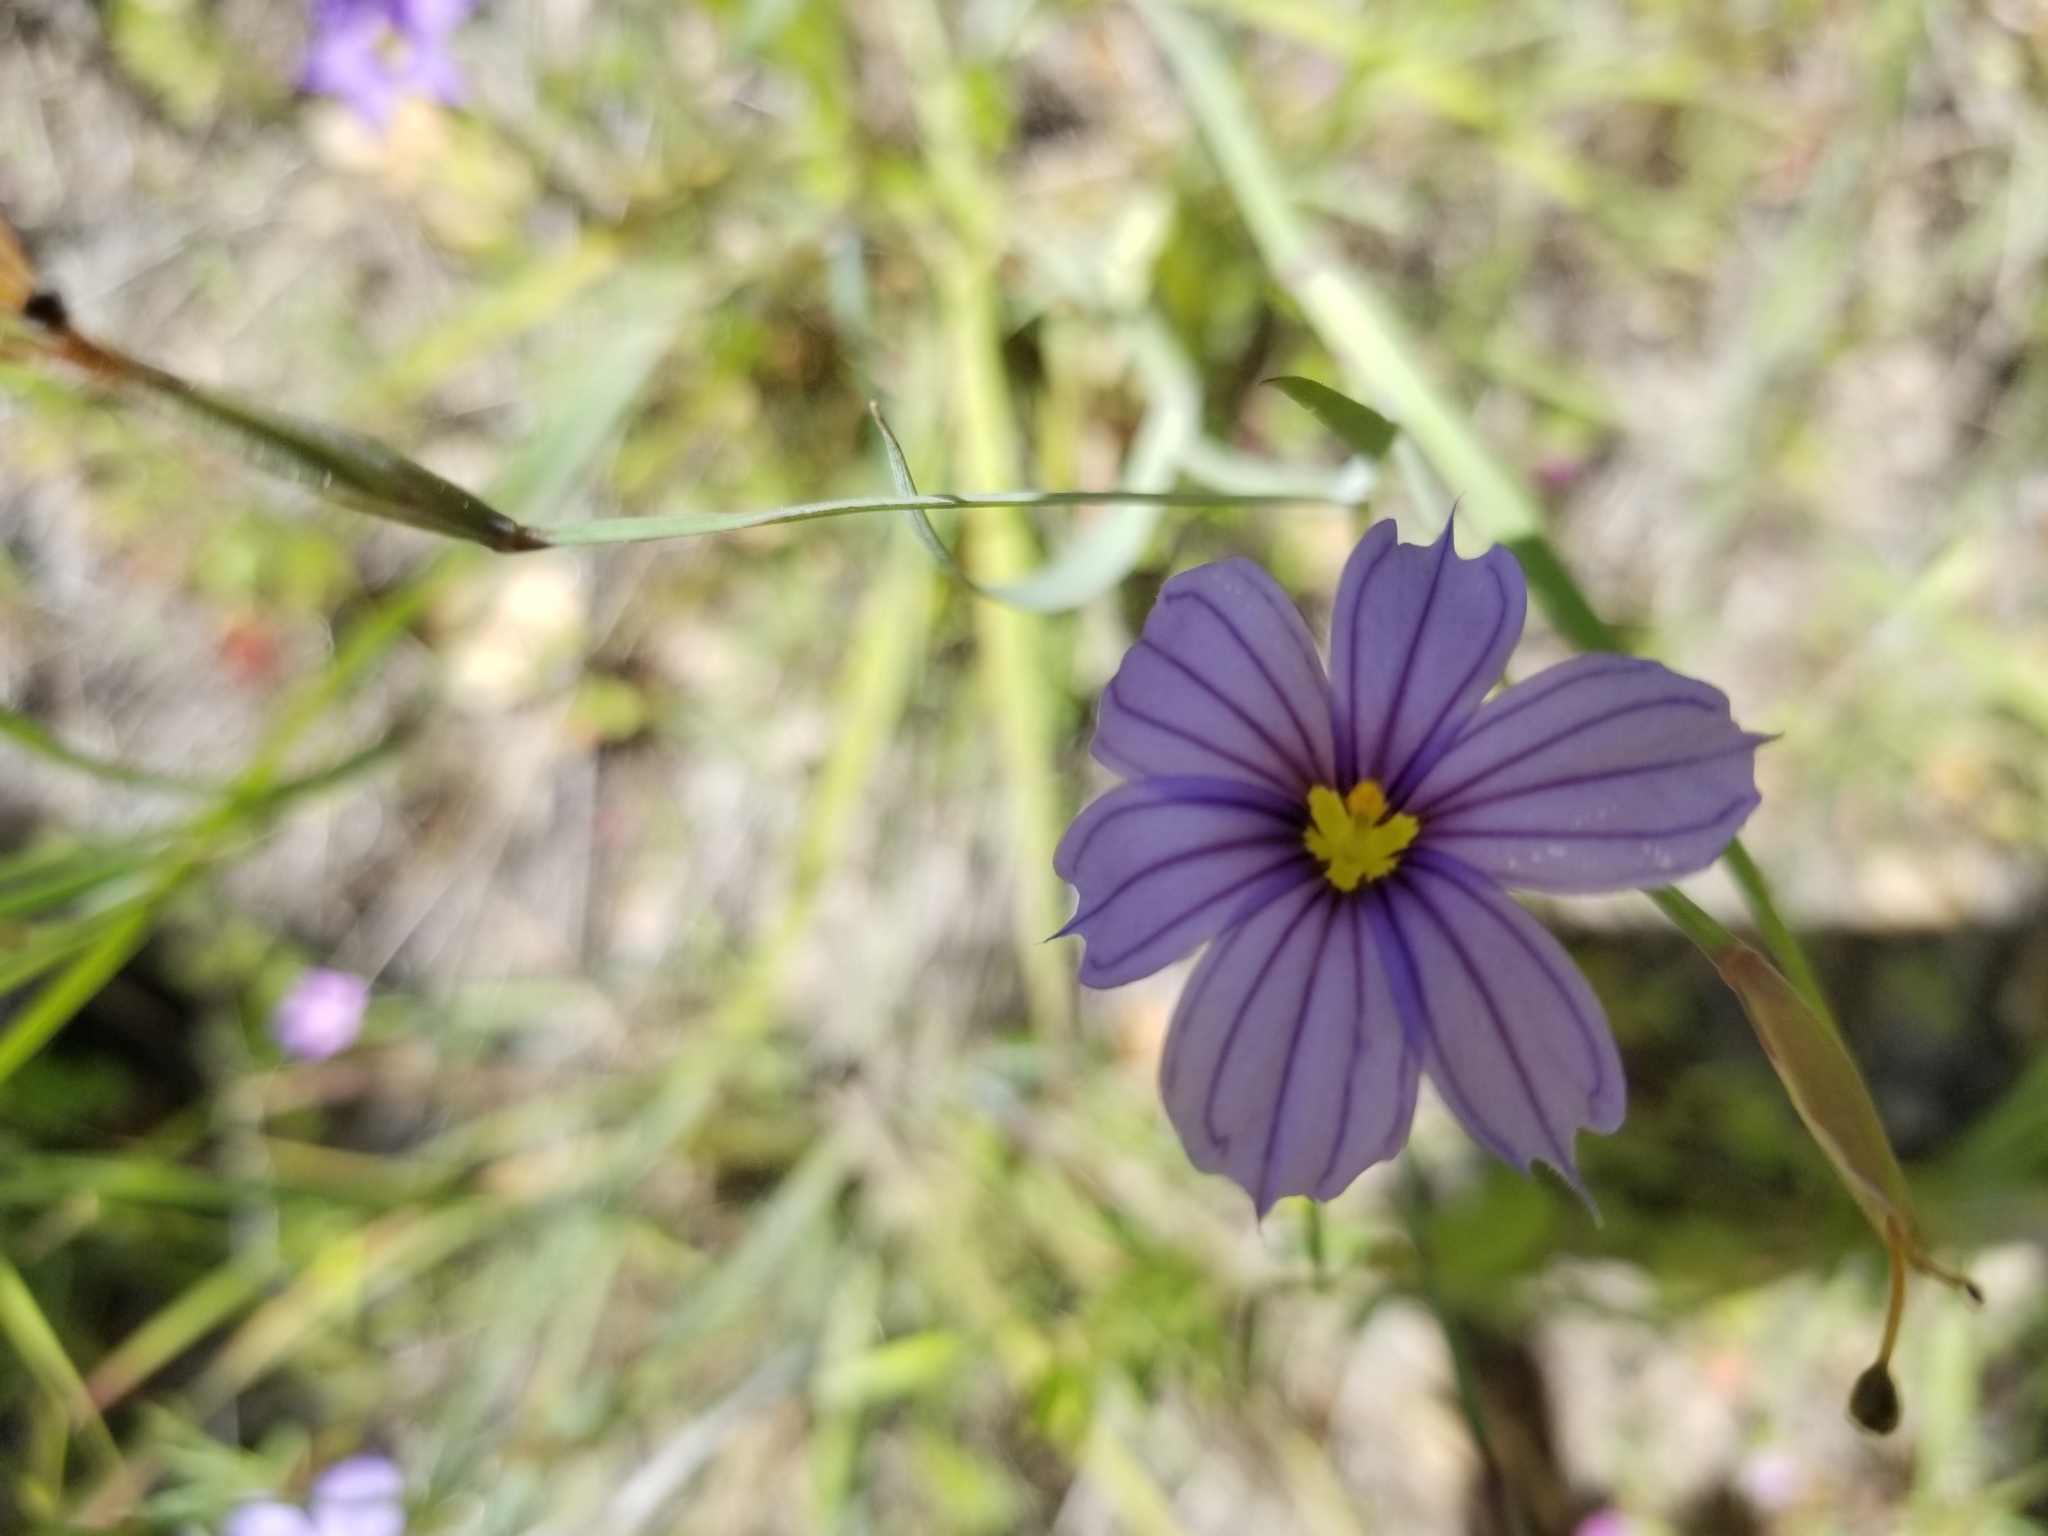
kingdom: Plantae
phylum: Tracheophyta
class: Liliopsida
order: Asparagales
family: Iridaceae
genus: Sisyrinchium
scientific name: Sisyrinchium bellum
